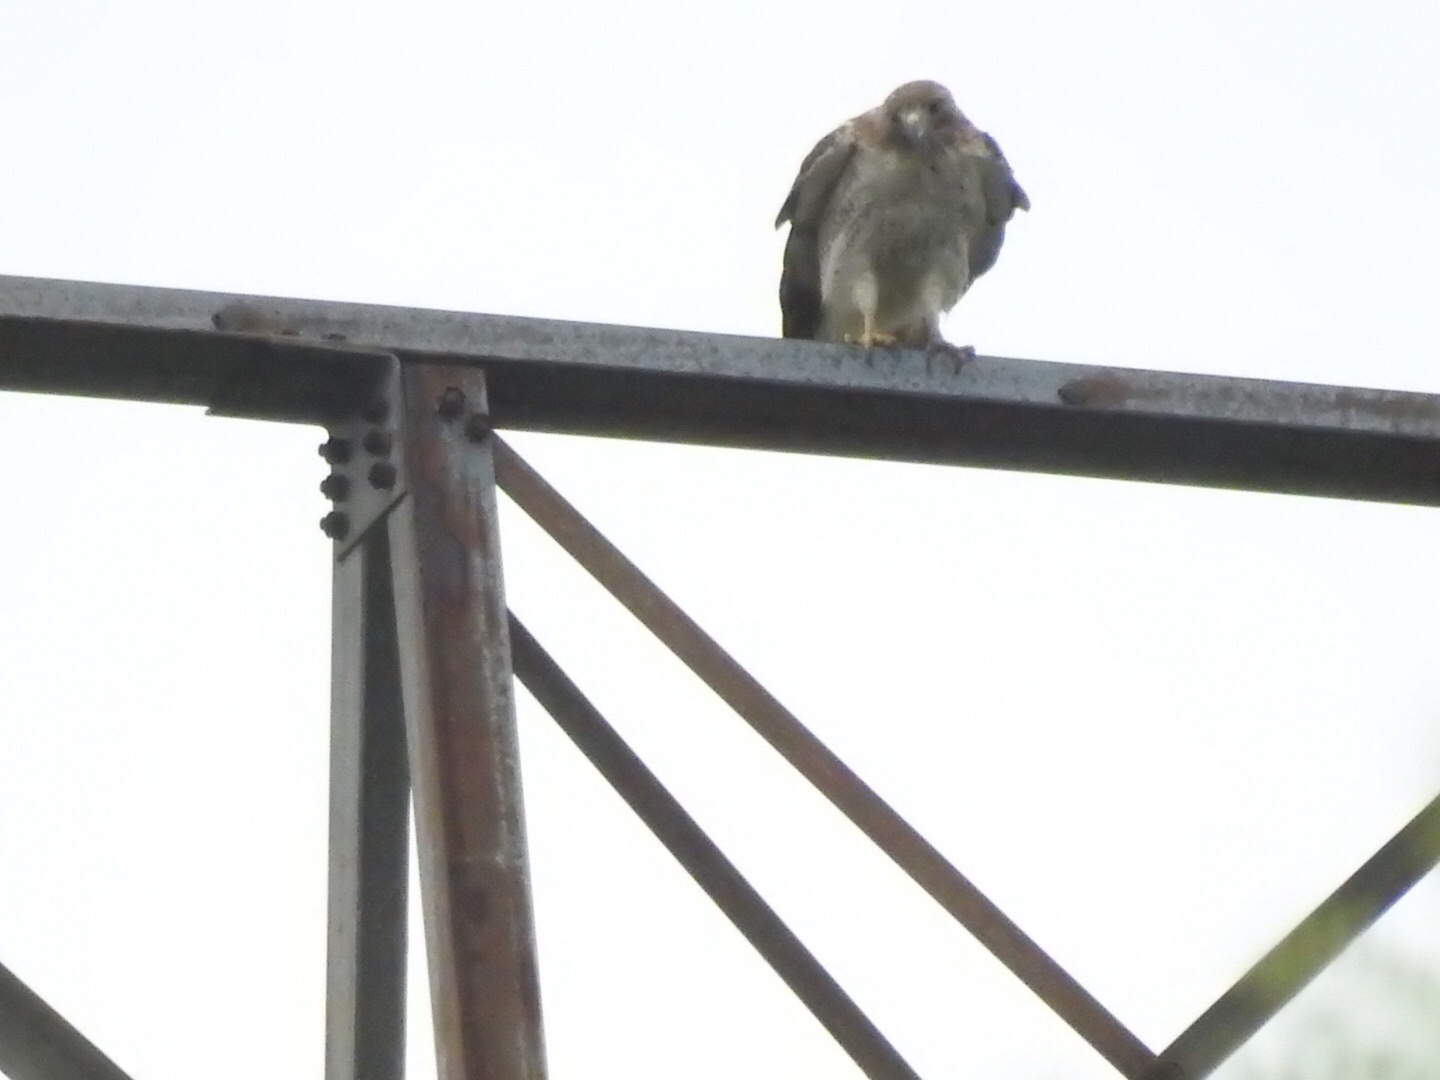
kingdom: Animalia
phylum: Chordata
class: Aves
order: Accipitriformes
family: Accipitridae
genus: Buteo
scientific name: Buteo jamaicensis
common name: Red-tailed hawk
